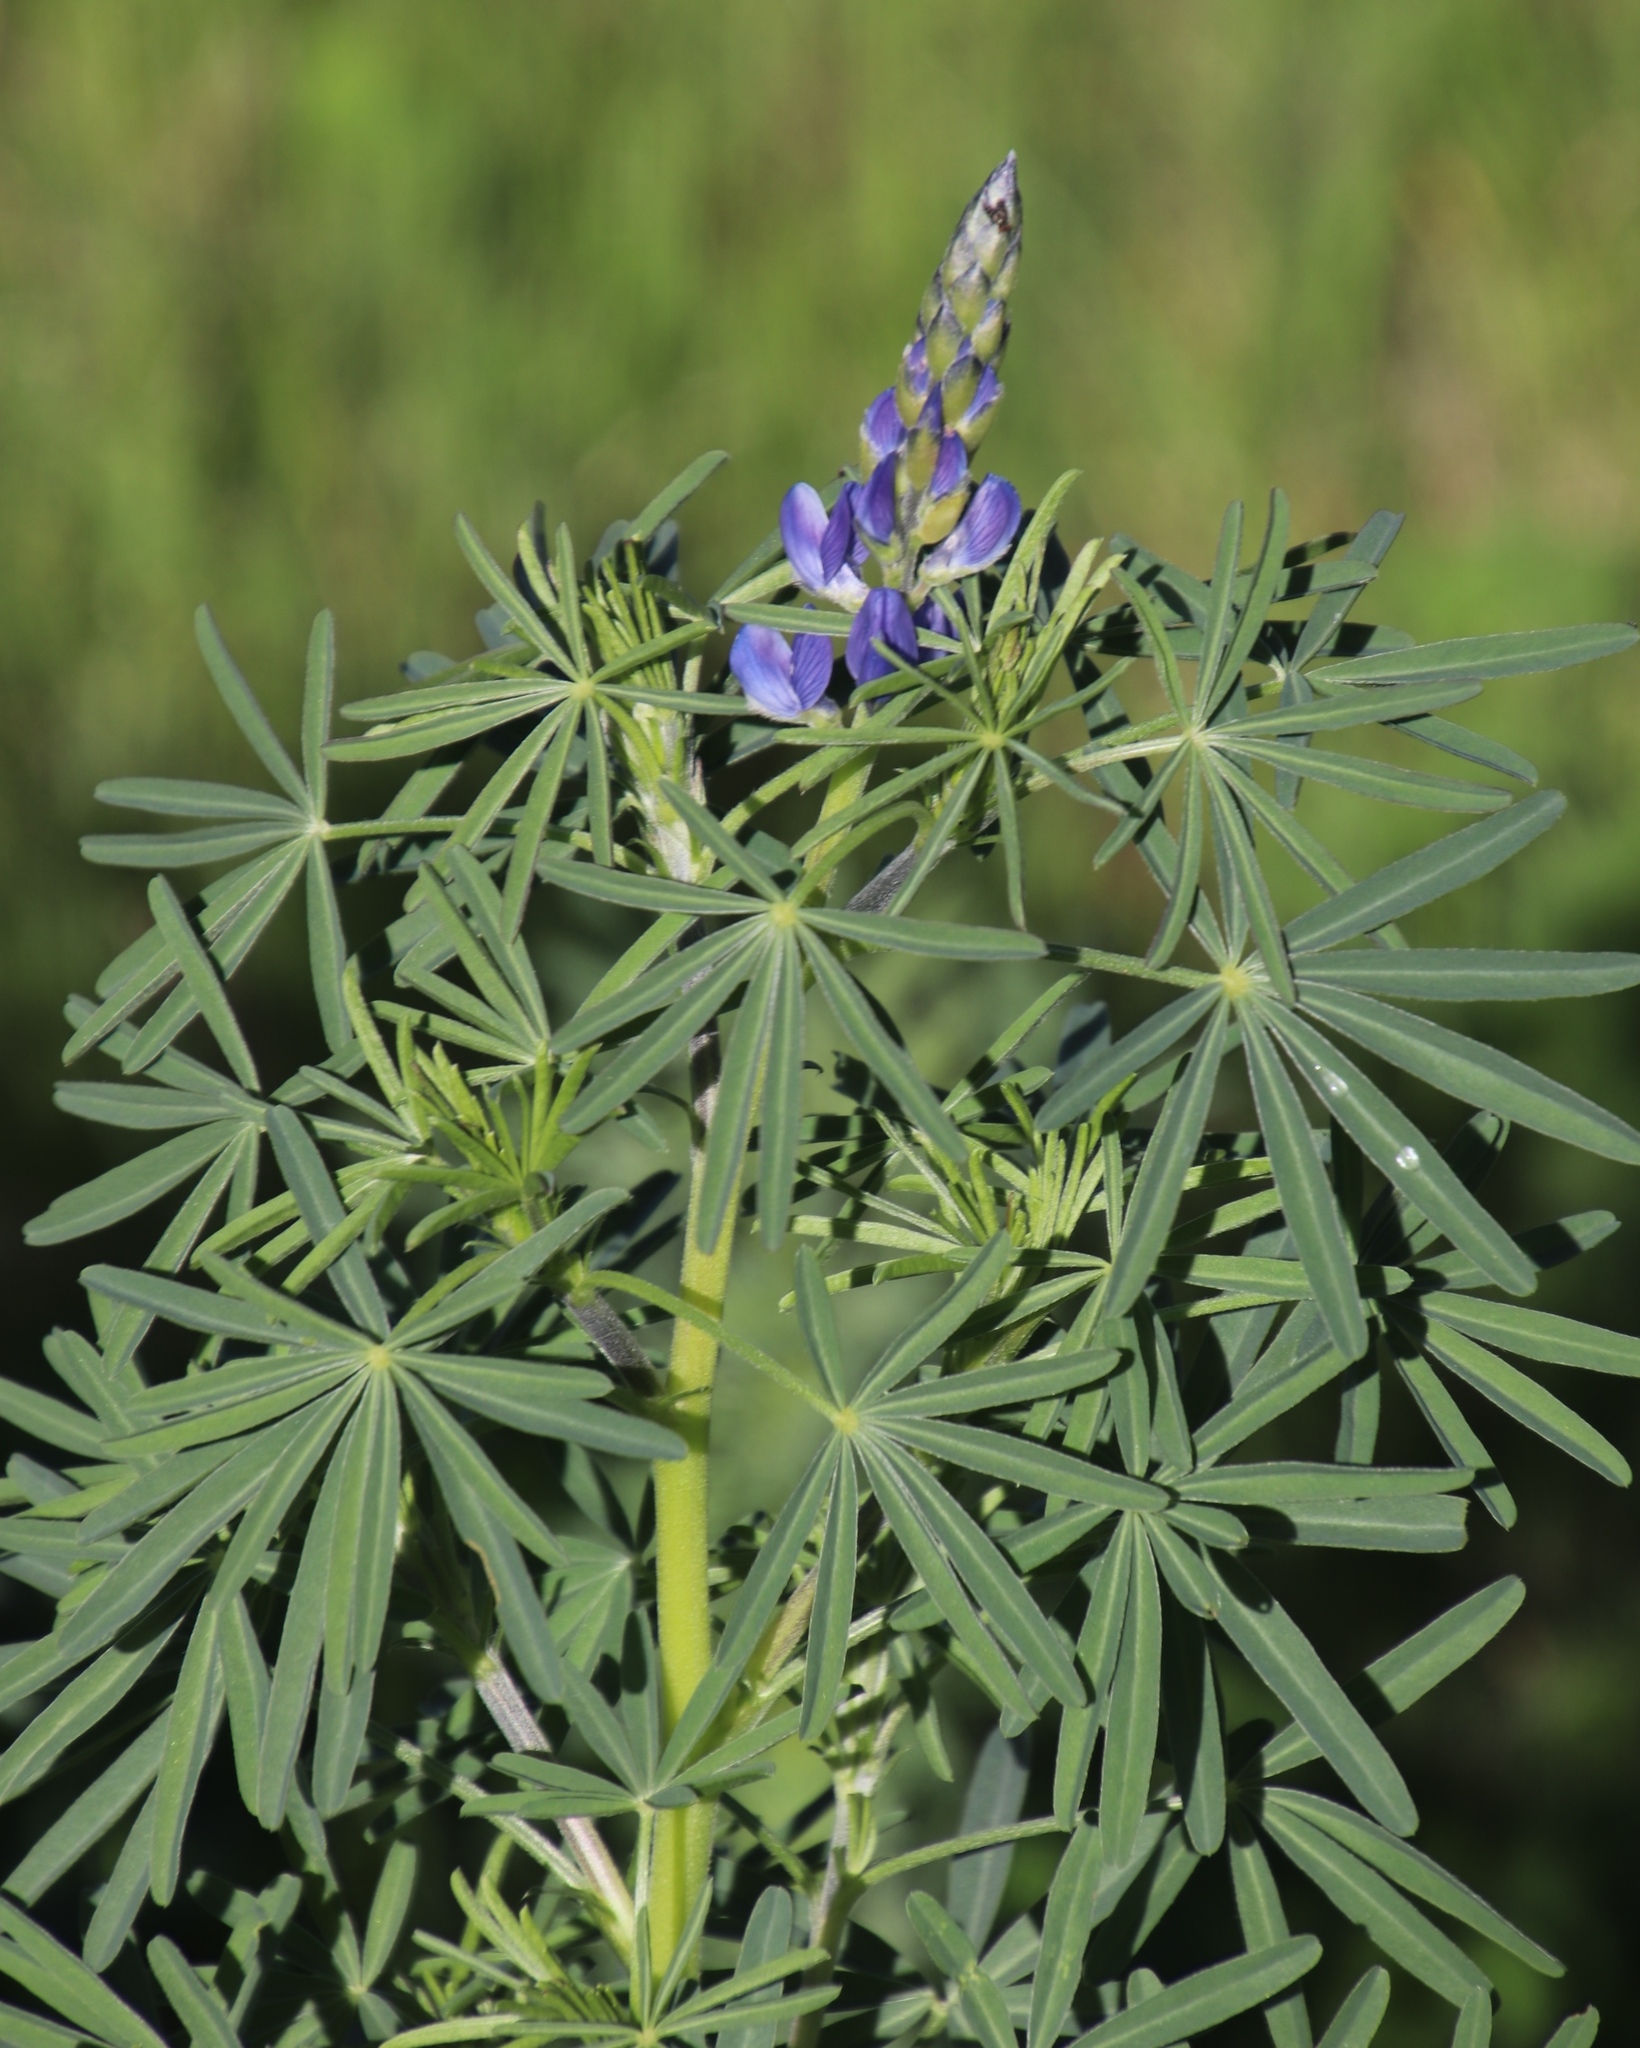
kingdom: Plantae
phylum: Tracheophyta
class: Magnoliopsida
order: Fabales
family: Fabaceae
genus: Lupinus
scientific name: Lupinus angustifolius
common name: Narrow-leaved lupin
